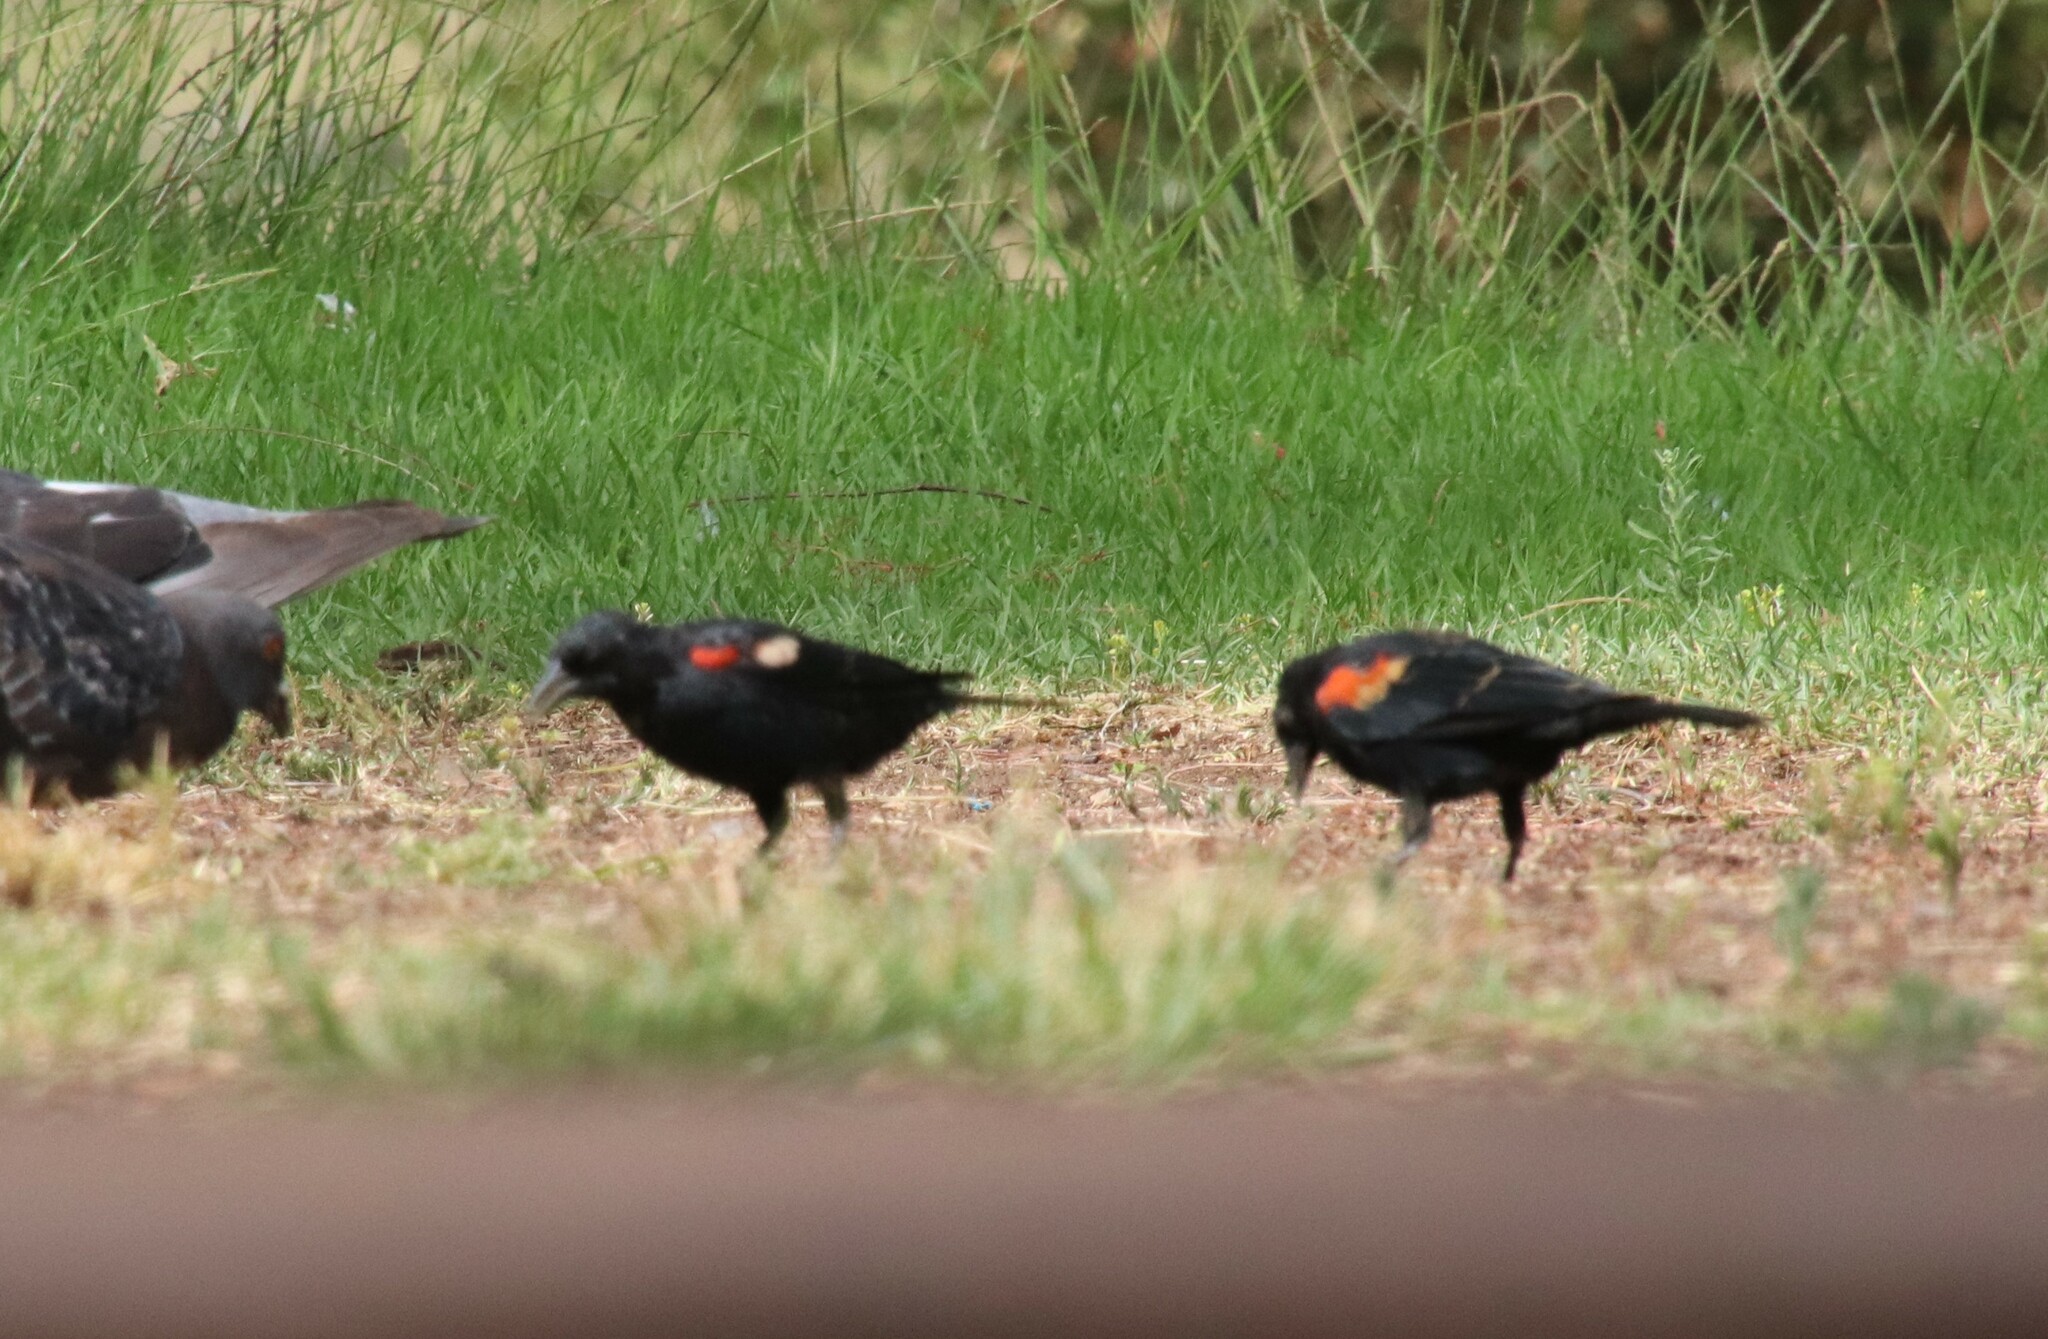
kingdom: Animalia
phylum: Chordata
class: Aves
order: Passeriformes
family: Icteridae
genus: Agelaius
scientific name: Agelaius phoeniceus
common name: Red-winged blackbird
